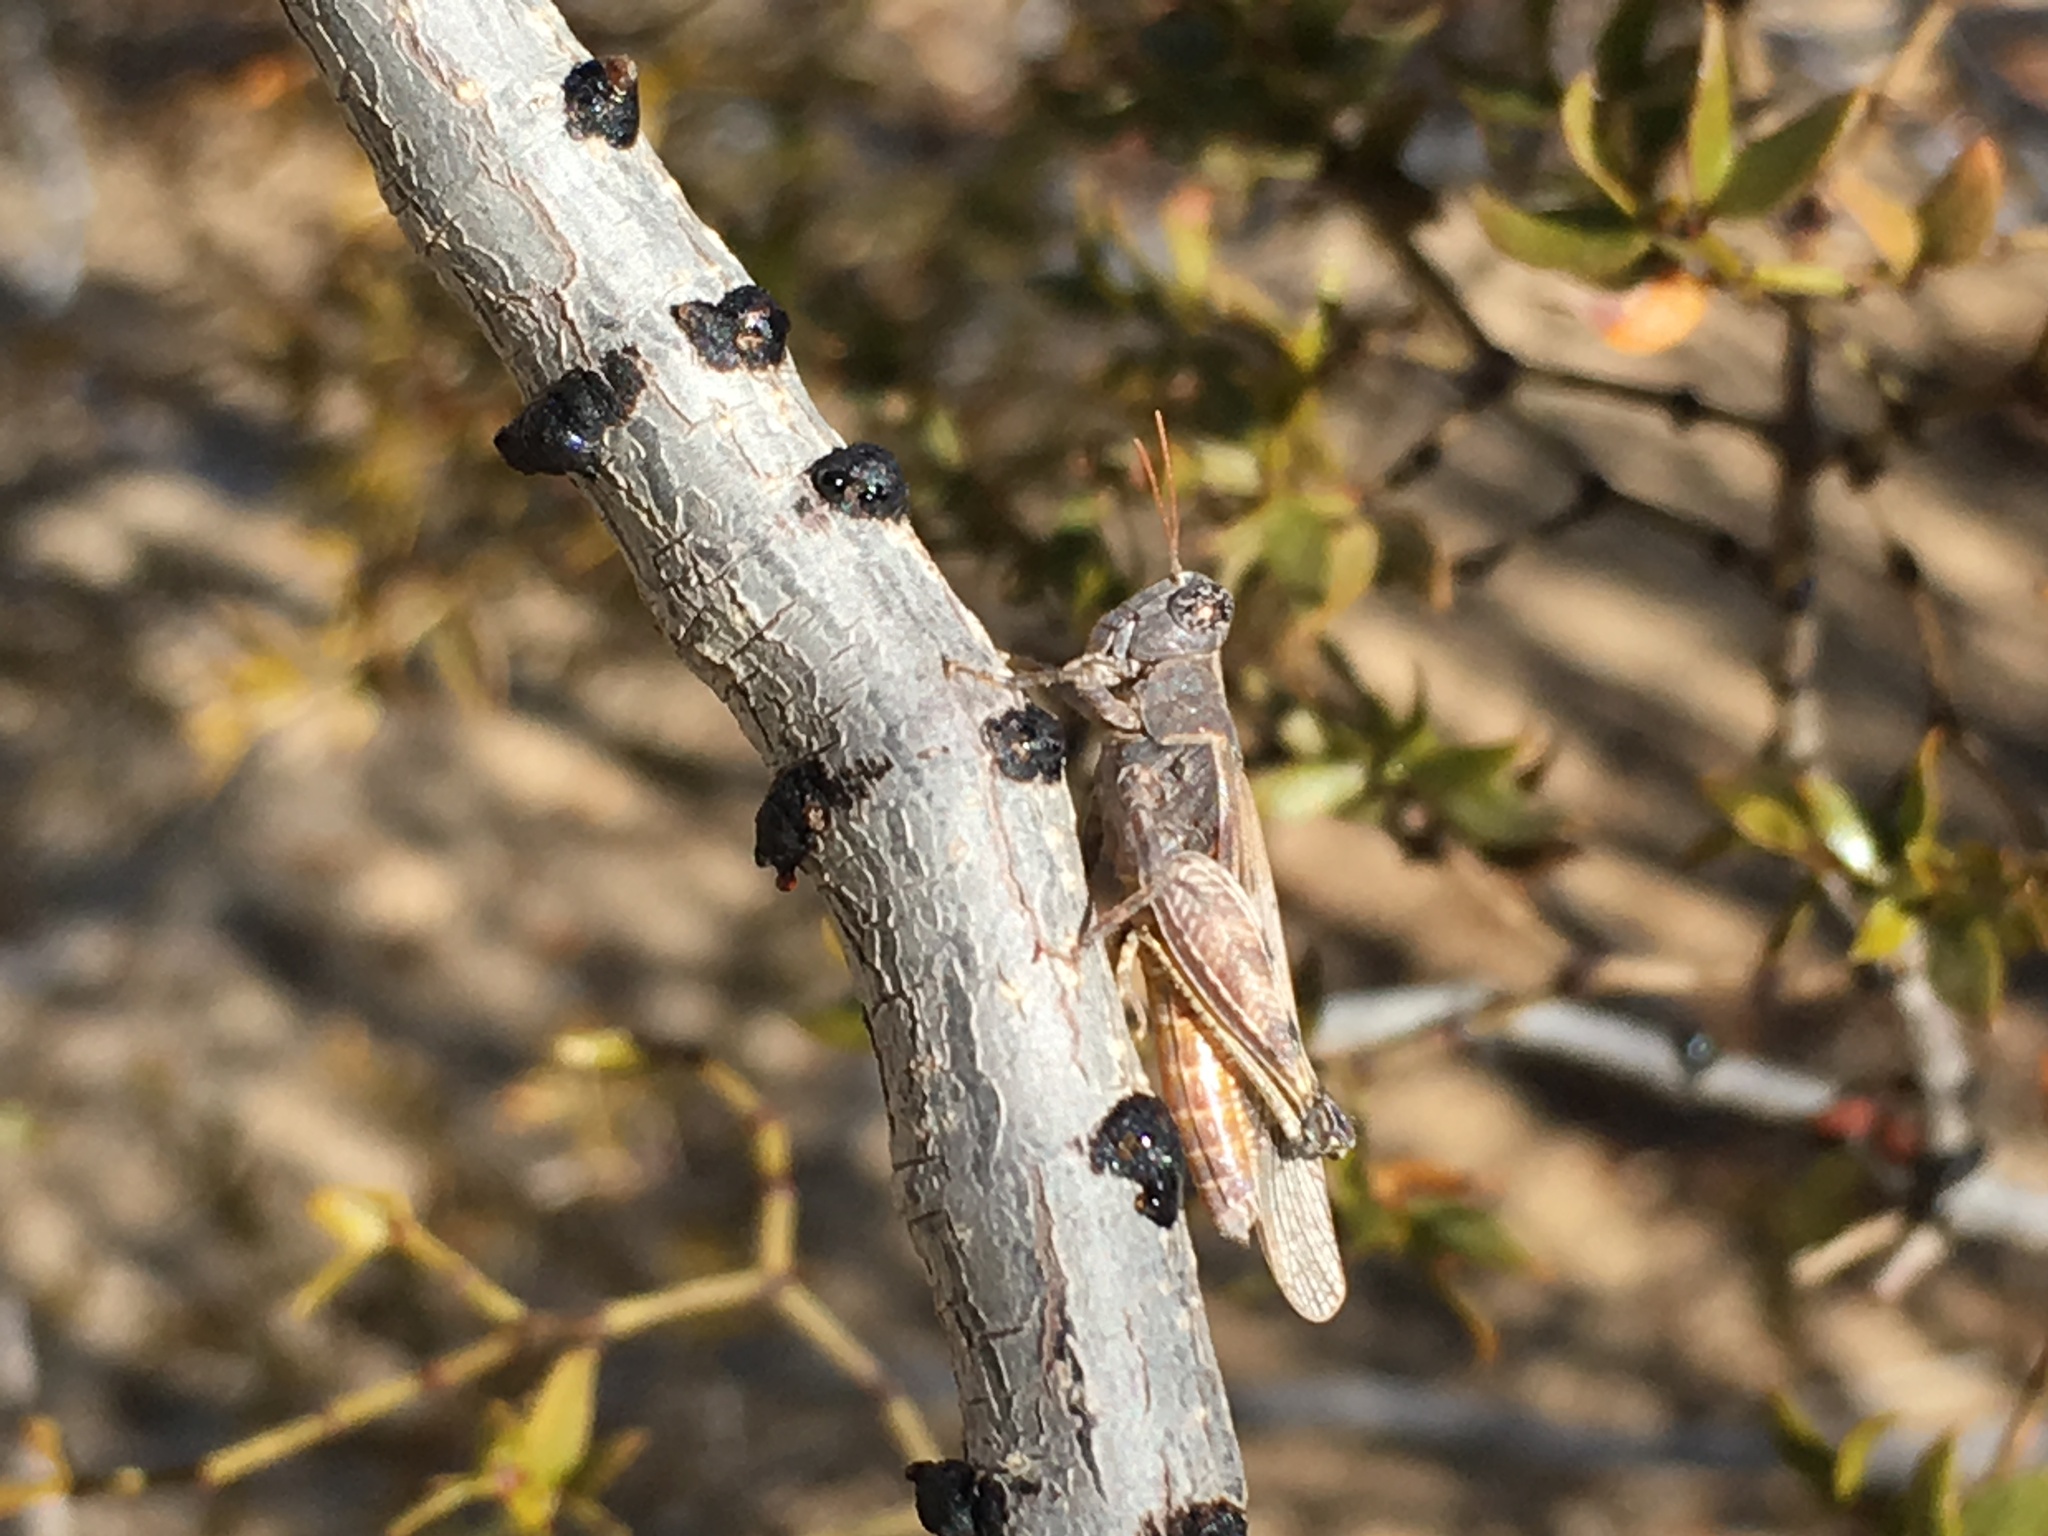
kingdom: Animalia
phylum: Arthropoda
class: Insecta
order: Orthoptera
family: Acrididae
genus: Ligurotettix
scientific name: Ligurotettix coquilletti
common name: Desert clicker grasshopper
